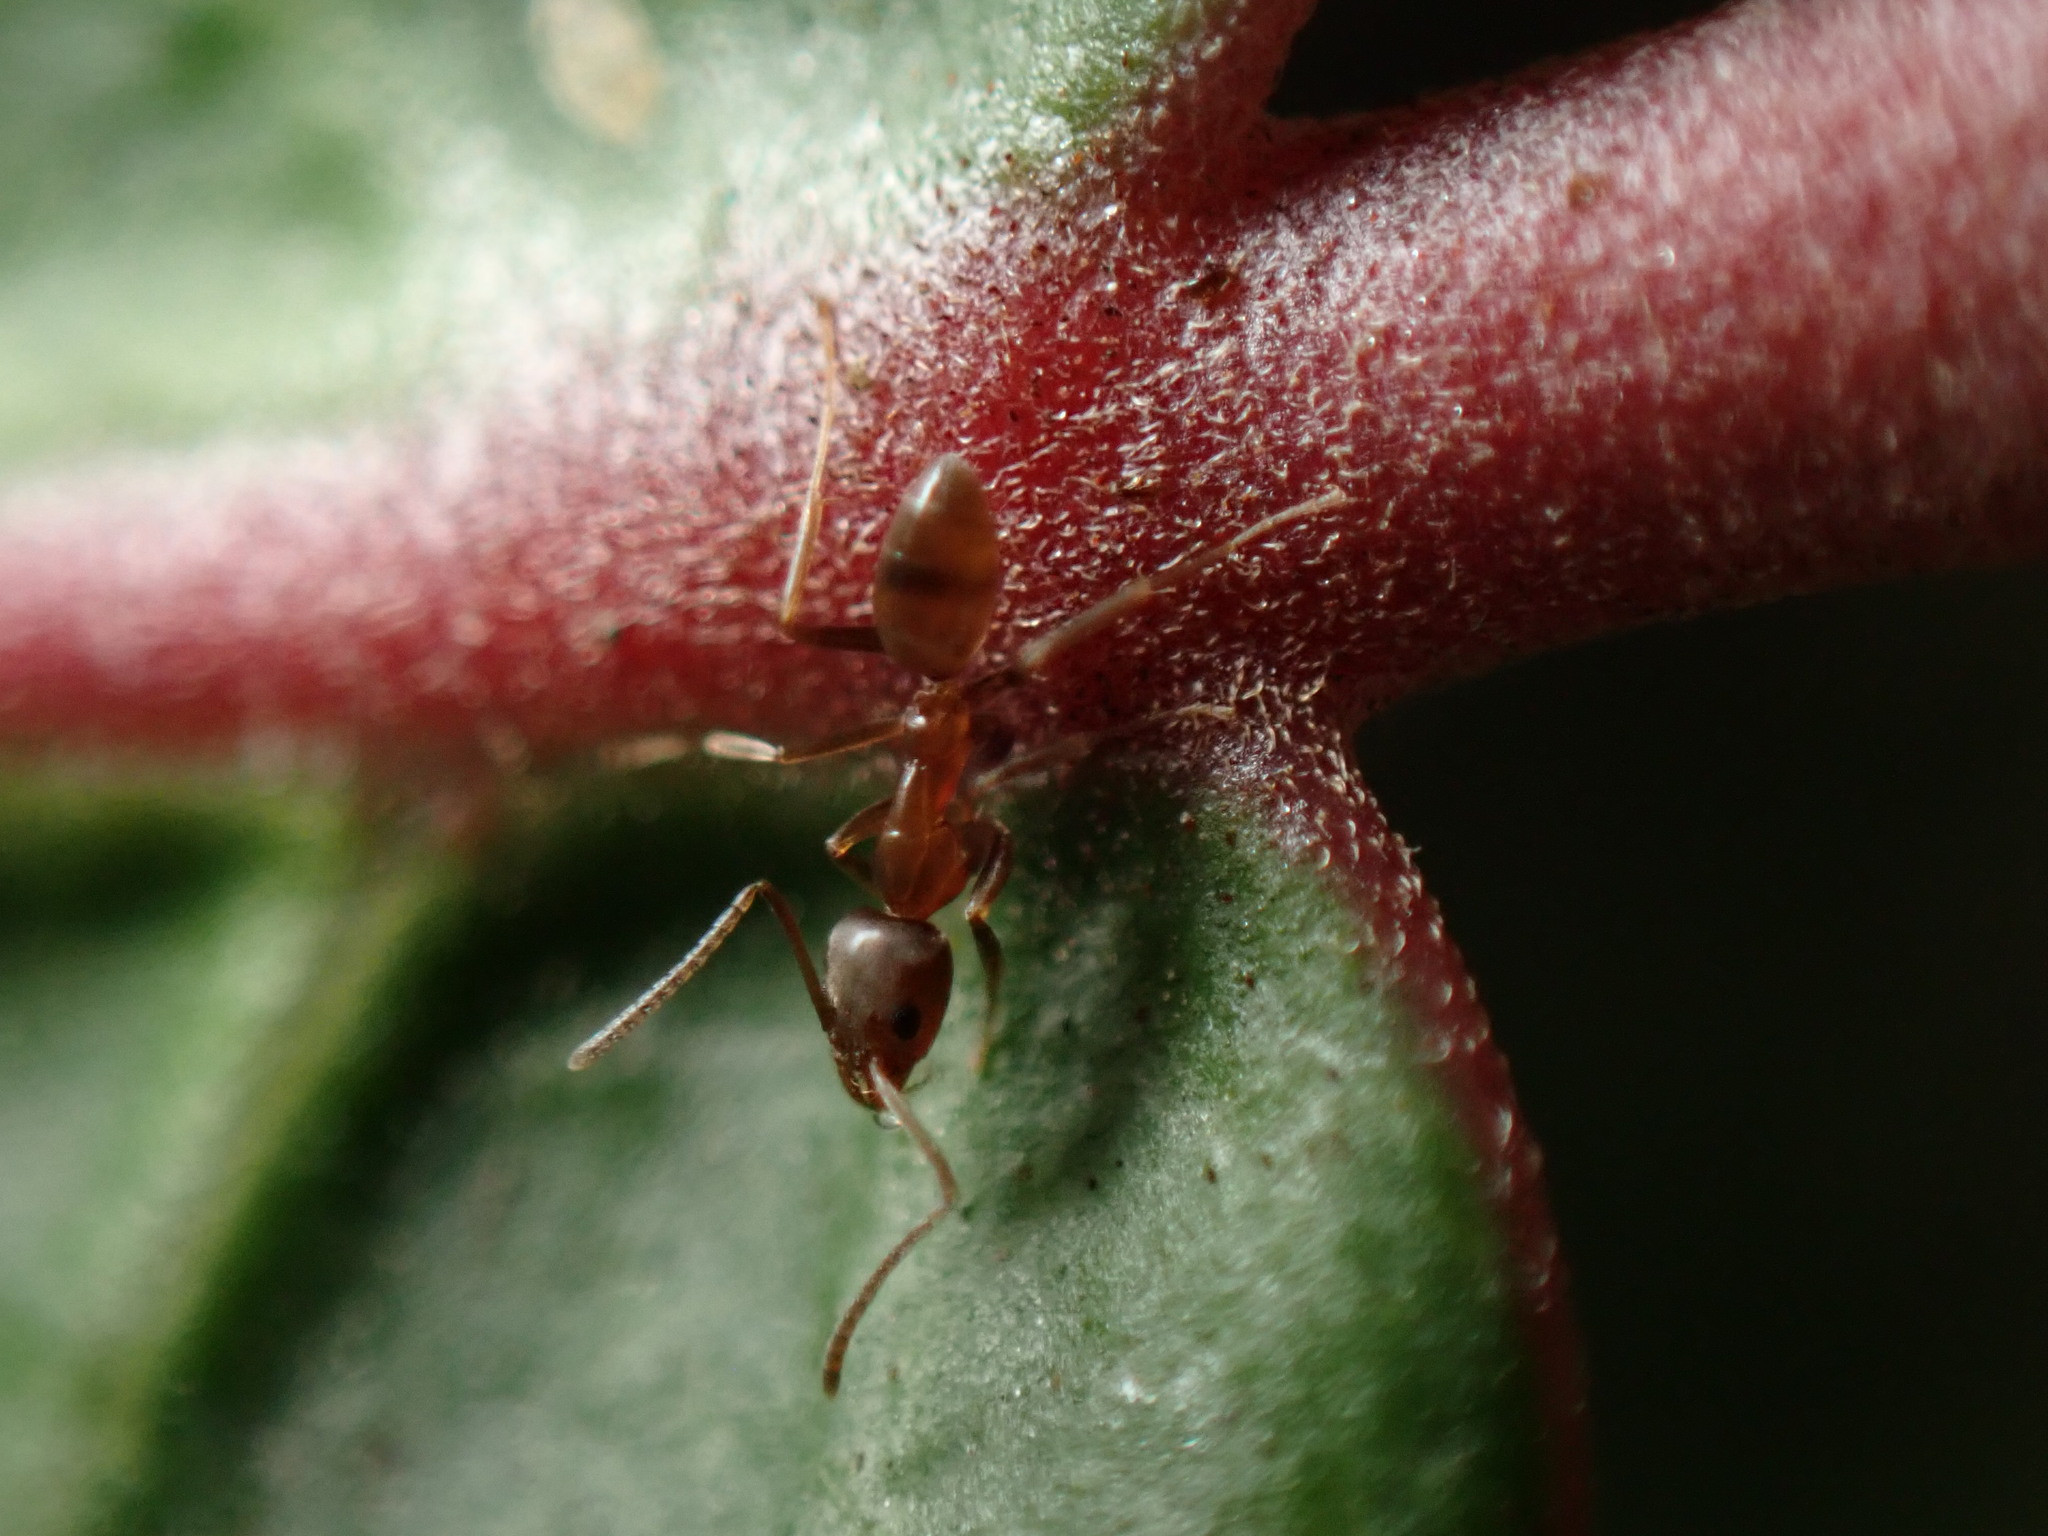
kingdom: Animalia
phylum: Arthropoda
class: Insecta
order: Hymenoptera
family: Formicidae
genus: Linepithema
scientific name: Linepithema humile
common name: Argentine ant
